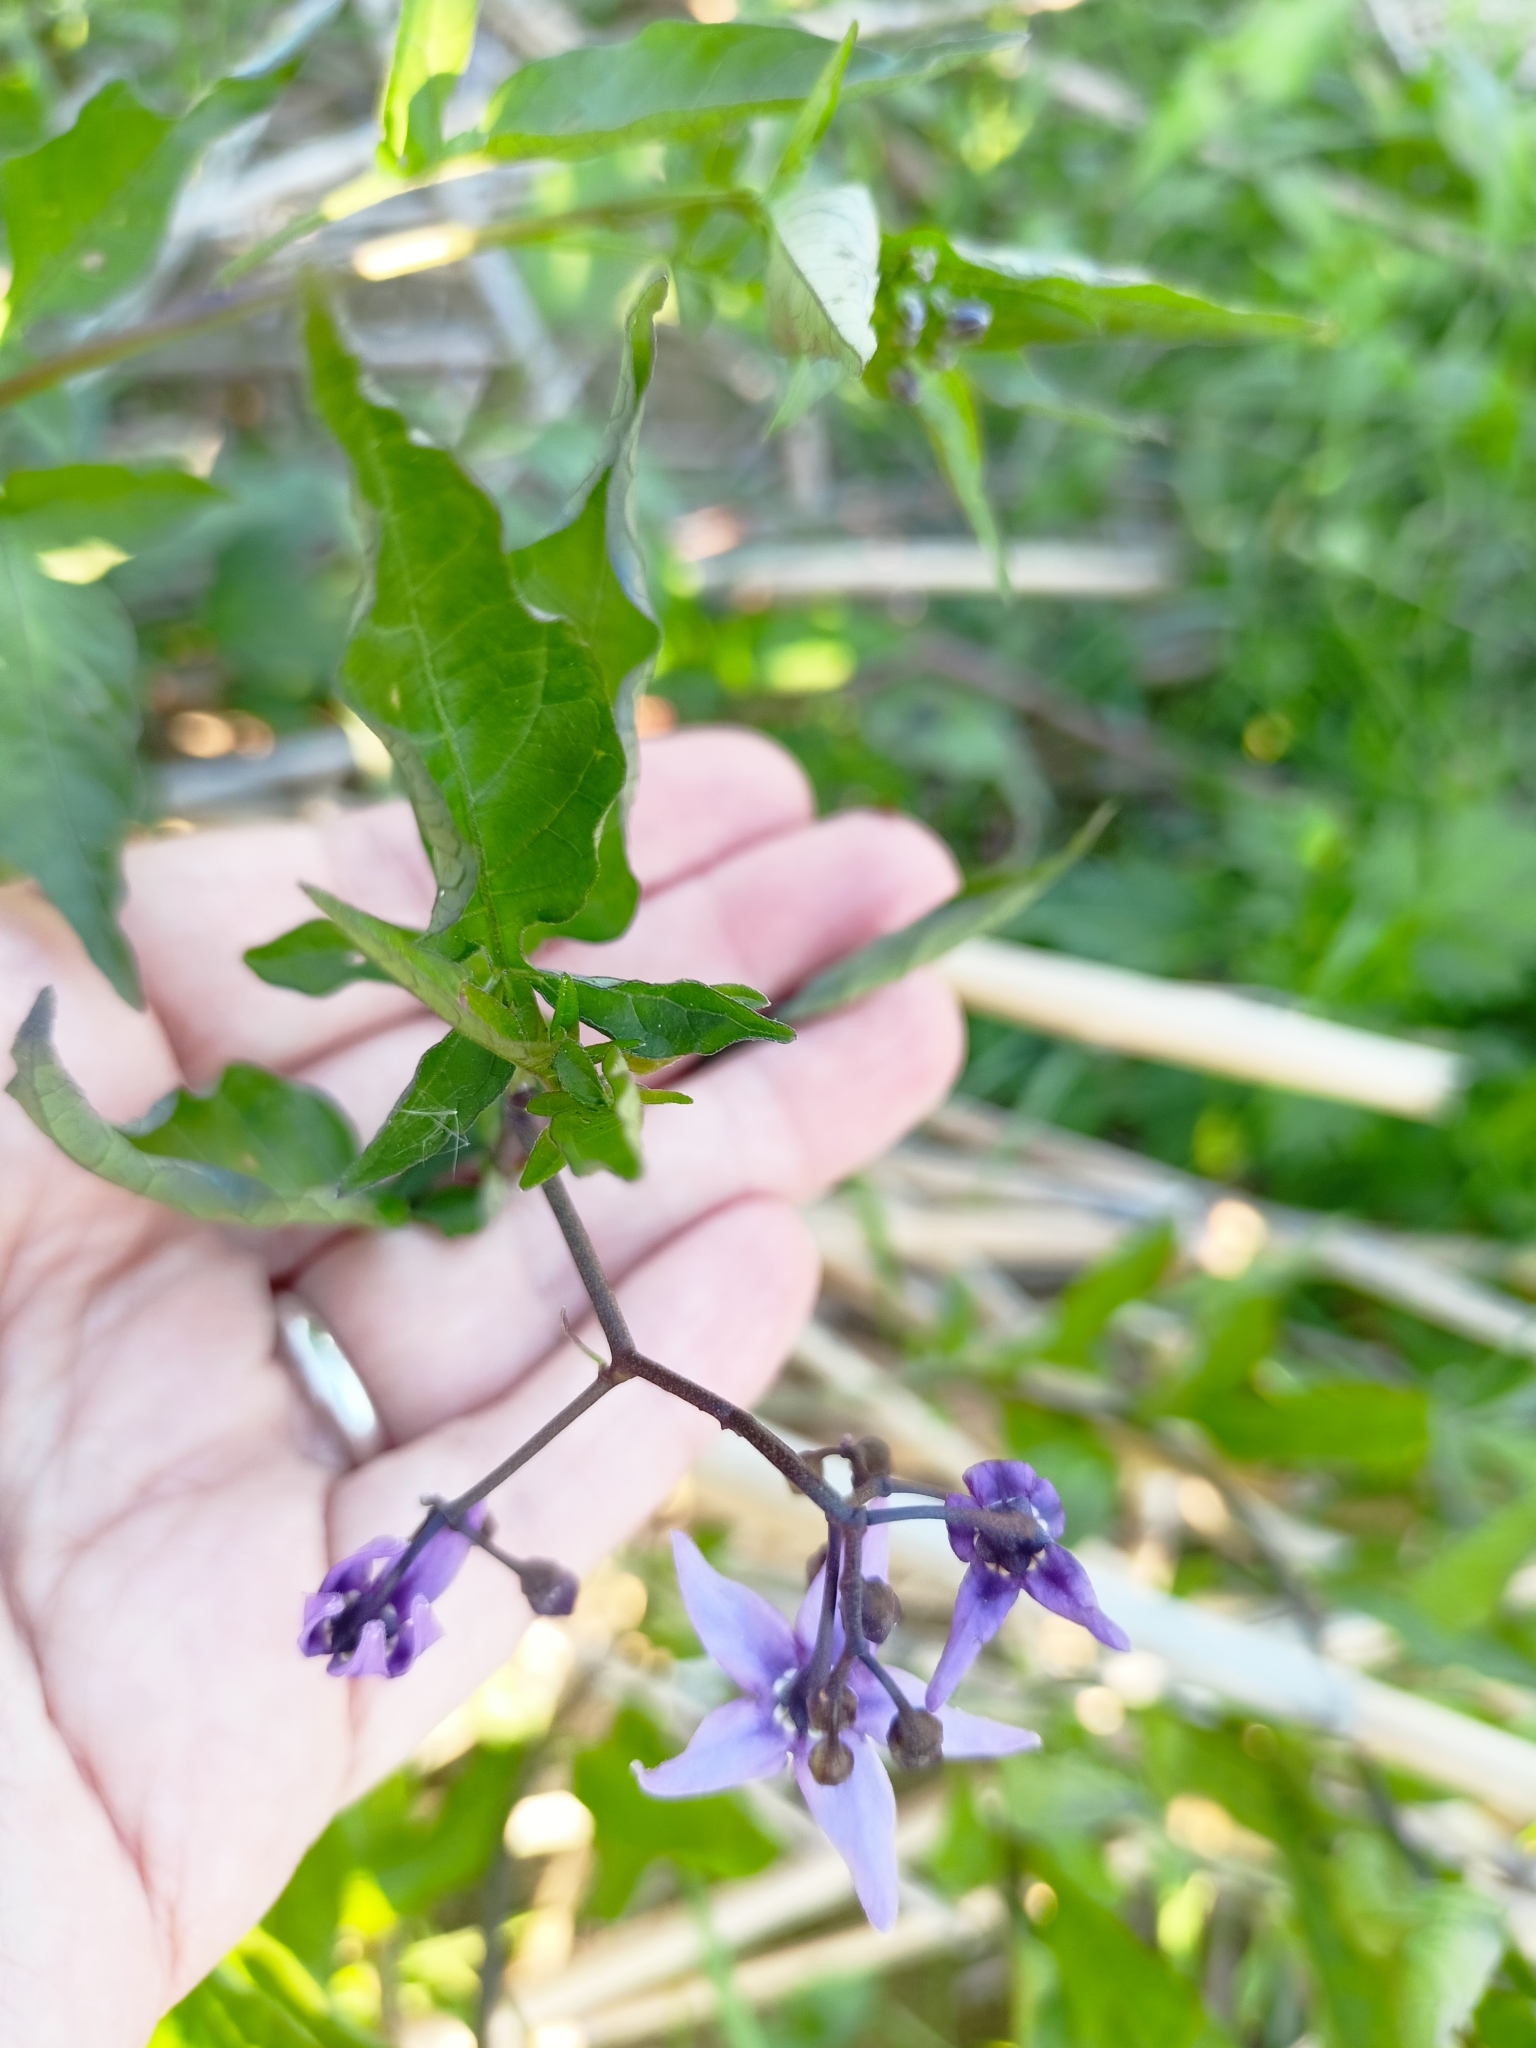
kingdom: Plantae
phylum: Tracheophyta
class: Magnoliopsida
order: Solanales
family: Solanaceae
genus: Solanum
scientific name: Solanum dulcamara
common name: Climbing nightshade
